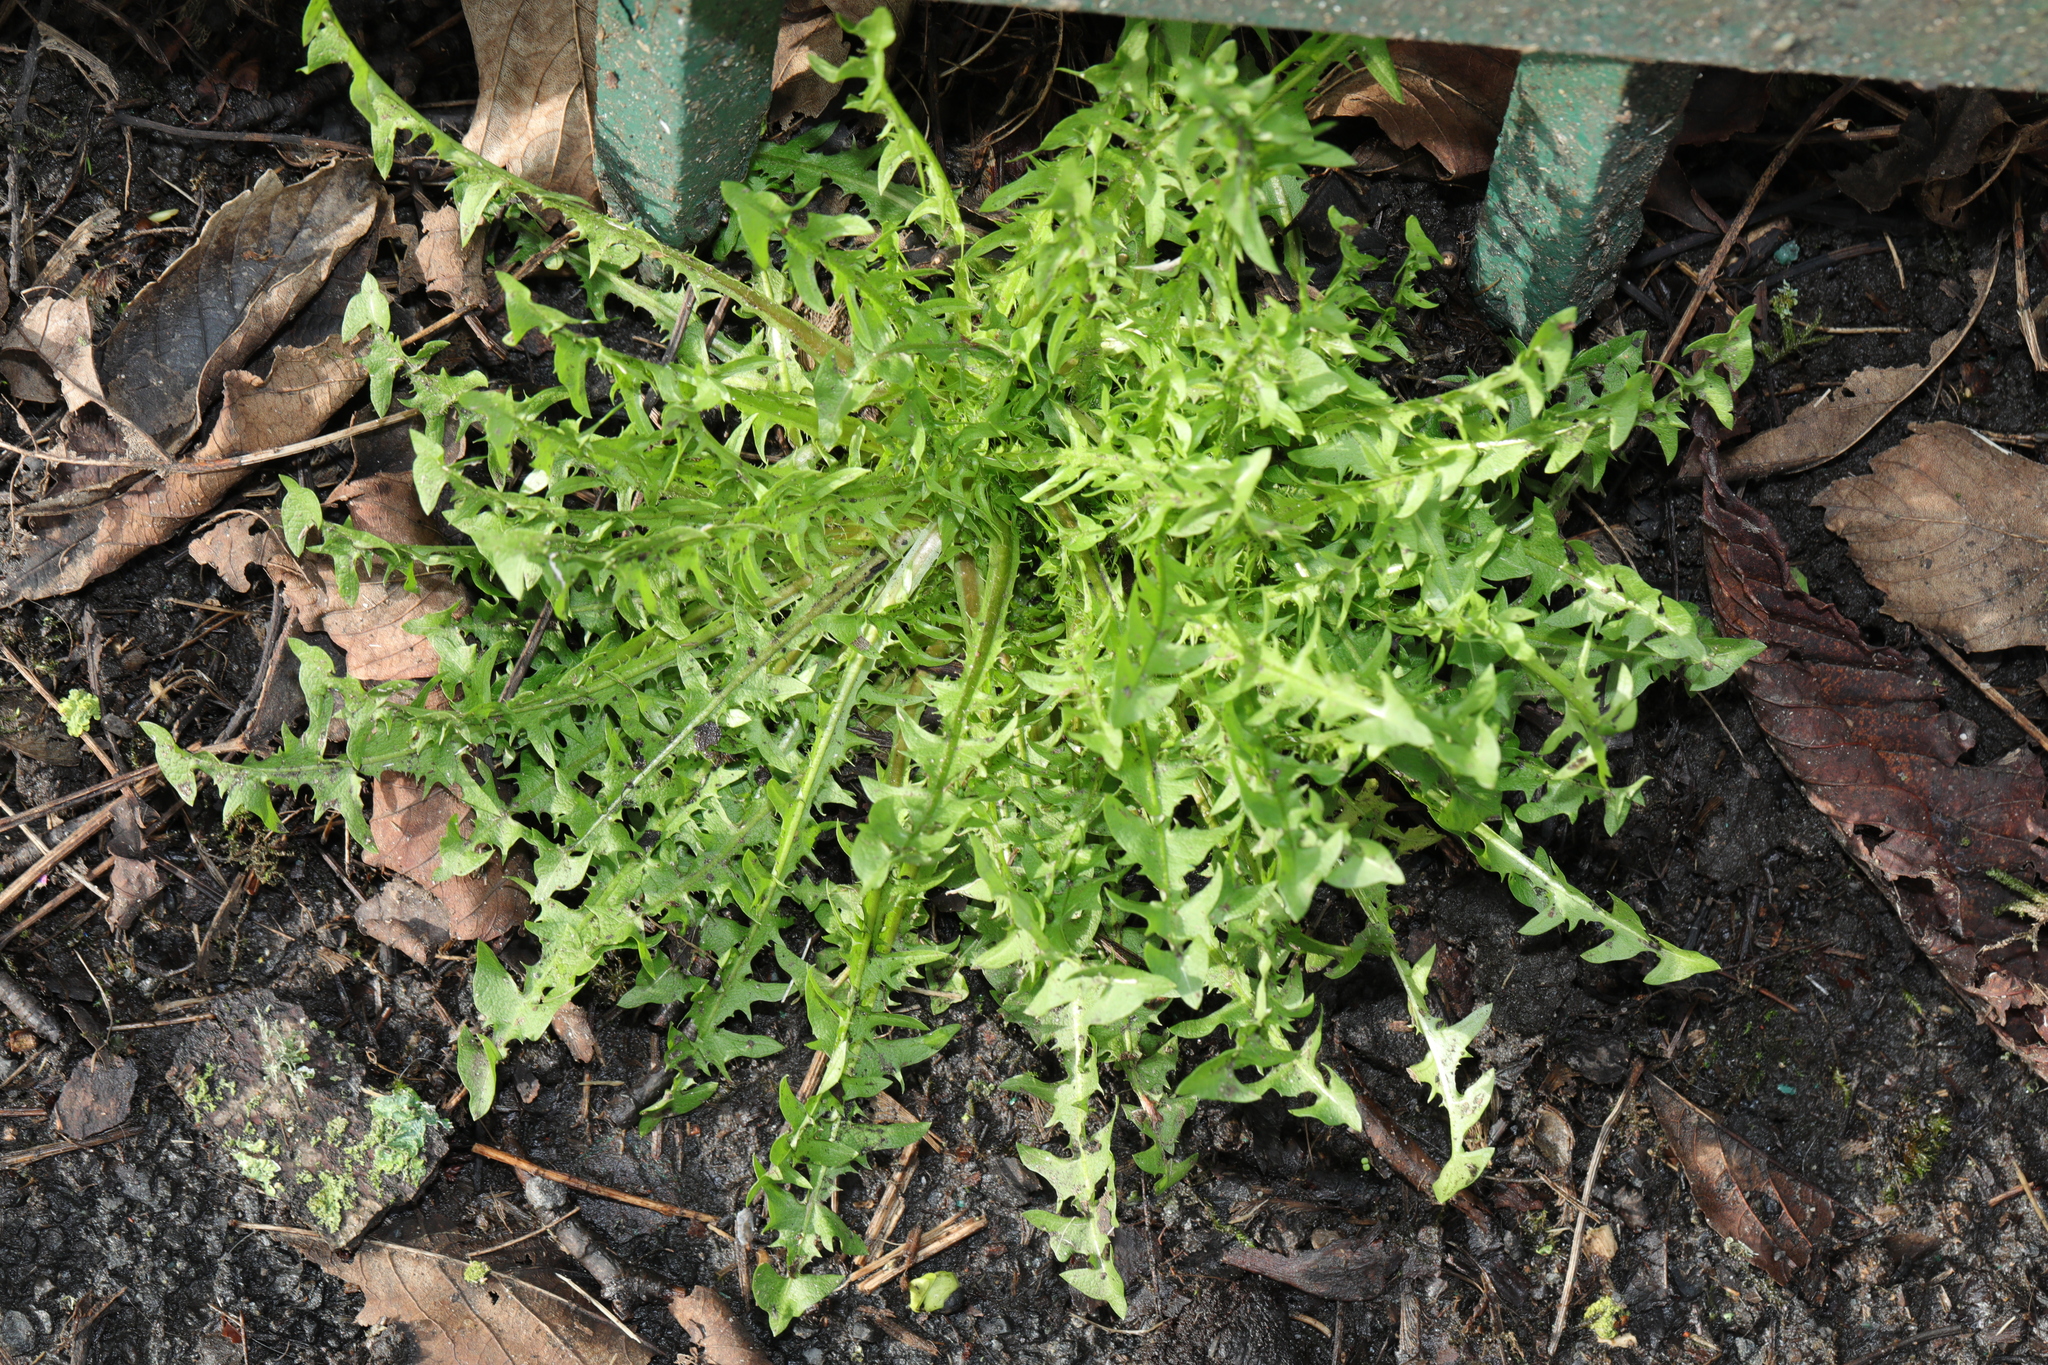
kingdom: Plantae
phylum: Tracheophyta
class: Magnoliopsida
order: Asterales
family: Asteraceae
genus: Taraxacum
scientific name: Taraxacum officinale
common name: Common dandelion
